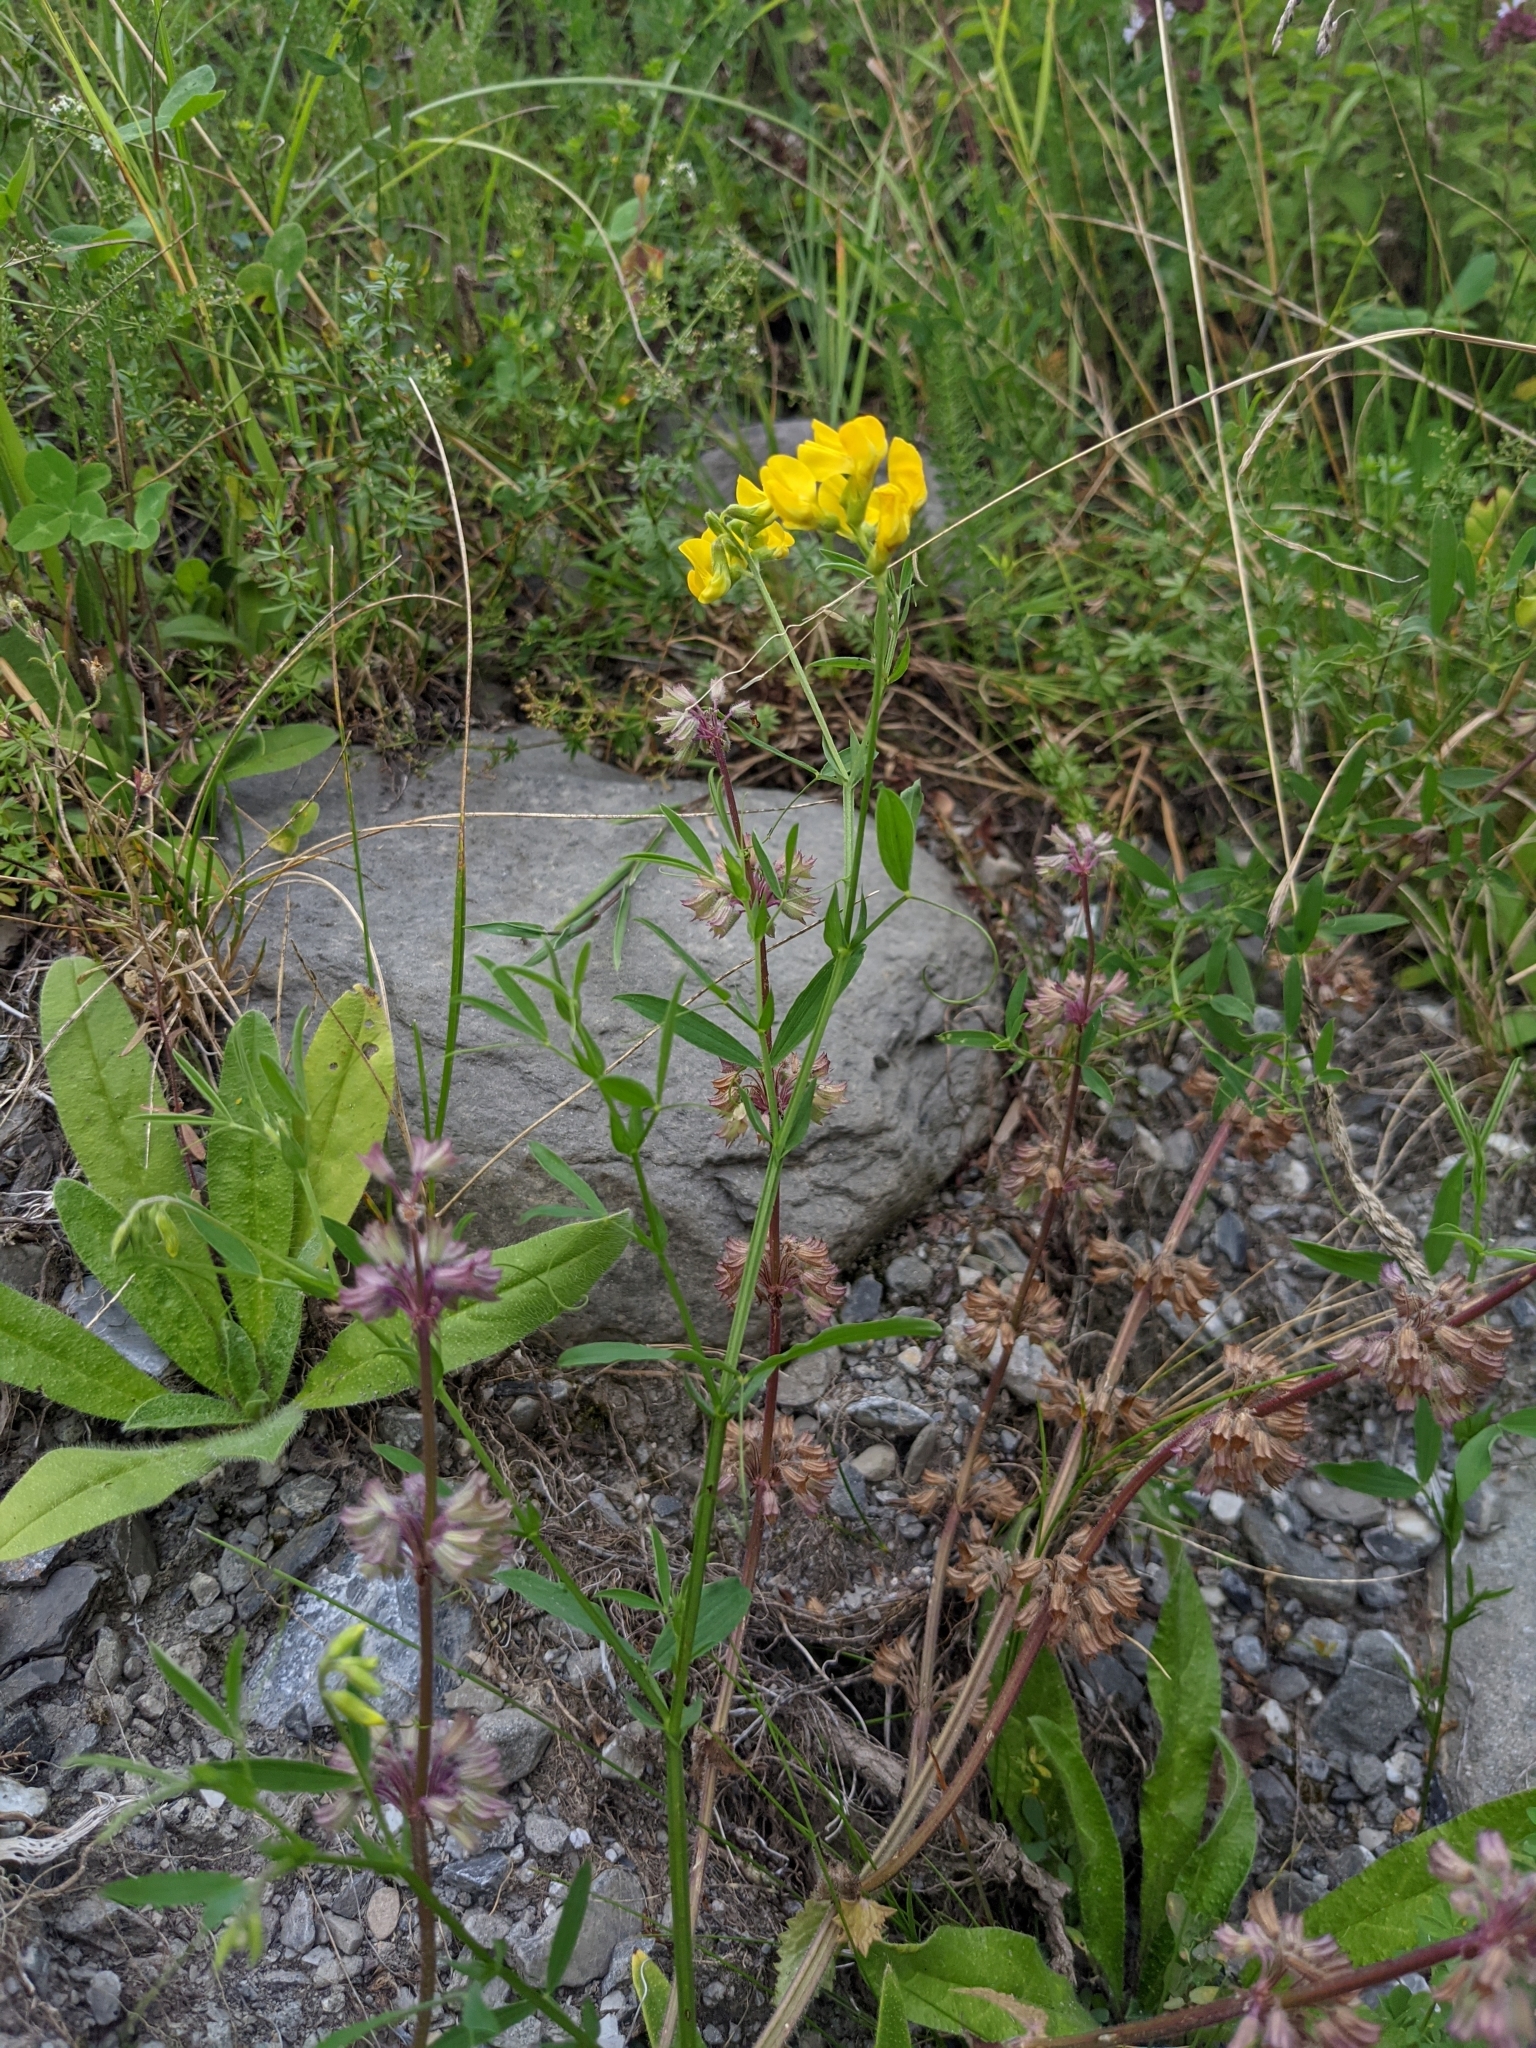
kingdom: Plantae
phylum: Tracheophyta
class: Magnoliopsida
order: Fabales
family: Fabaceae
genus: Lathyrus
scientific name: Lathyrus pratensis
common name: Meadow vetchling
